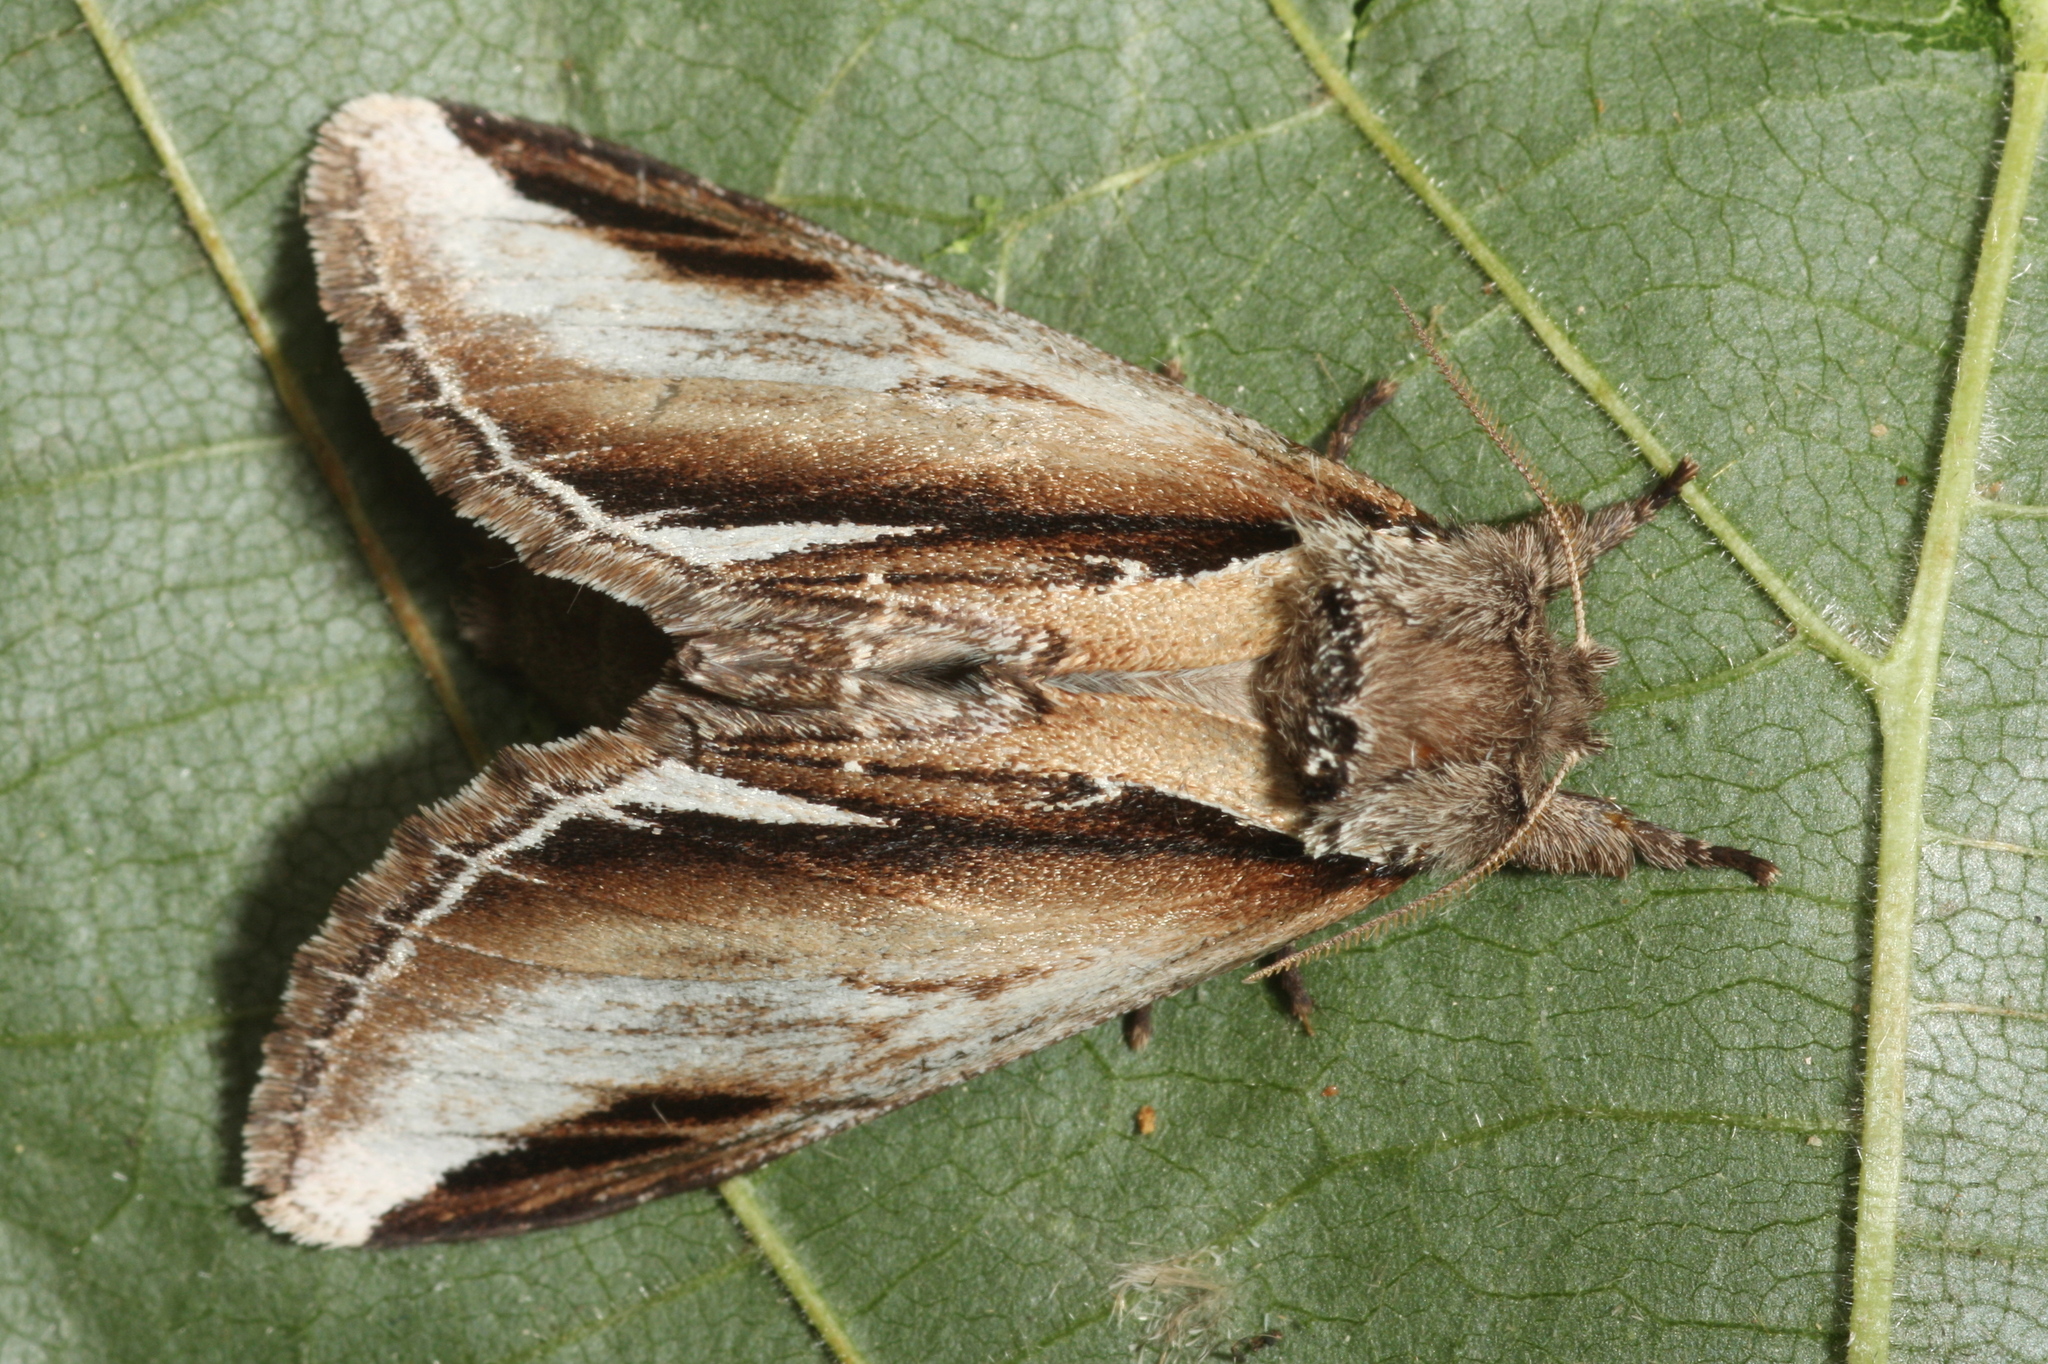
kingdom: Animalia
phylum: Arthropoda
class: Insecta
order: Lepidoptera
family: Notodontidae
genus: Pheosia
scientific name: Pheosia gnoma
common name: Lesser swallow prominent
